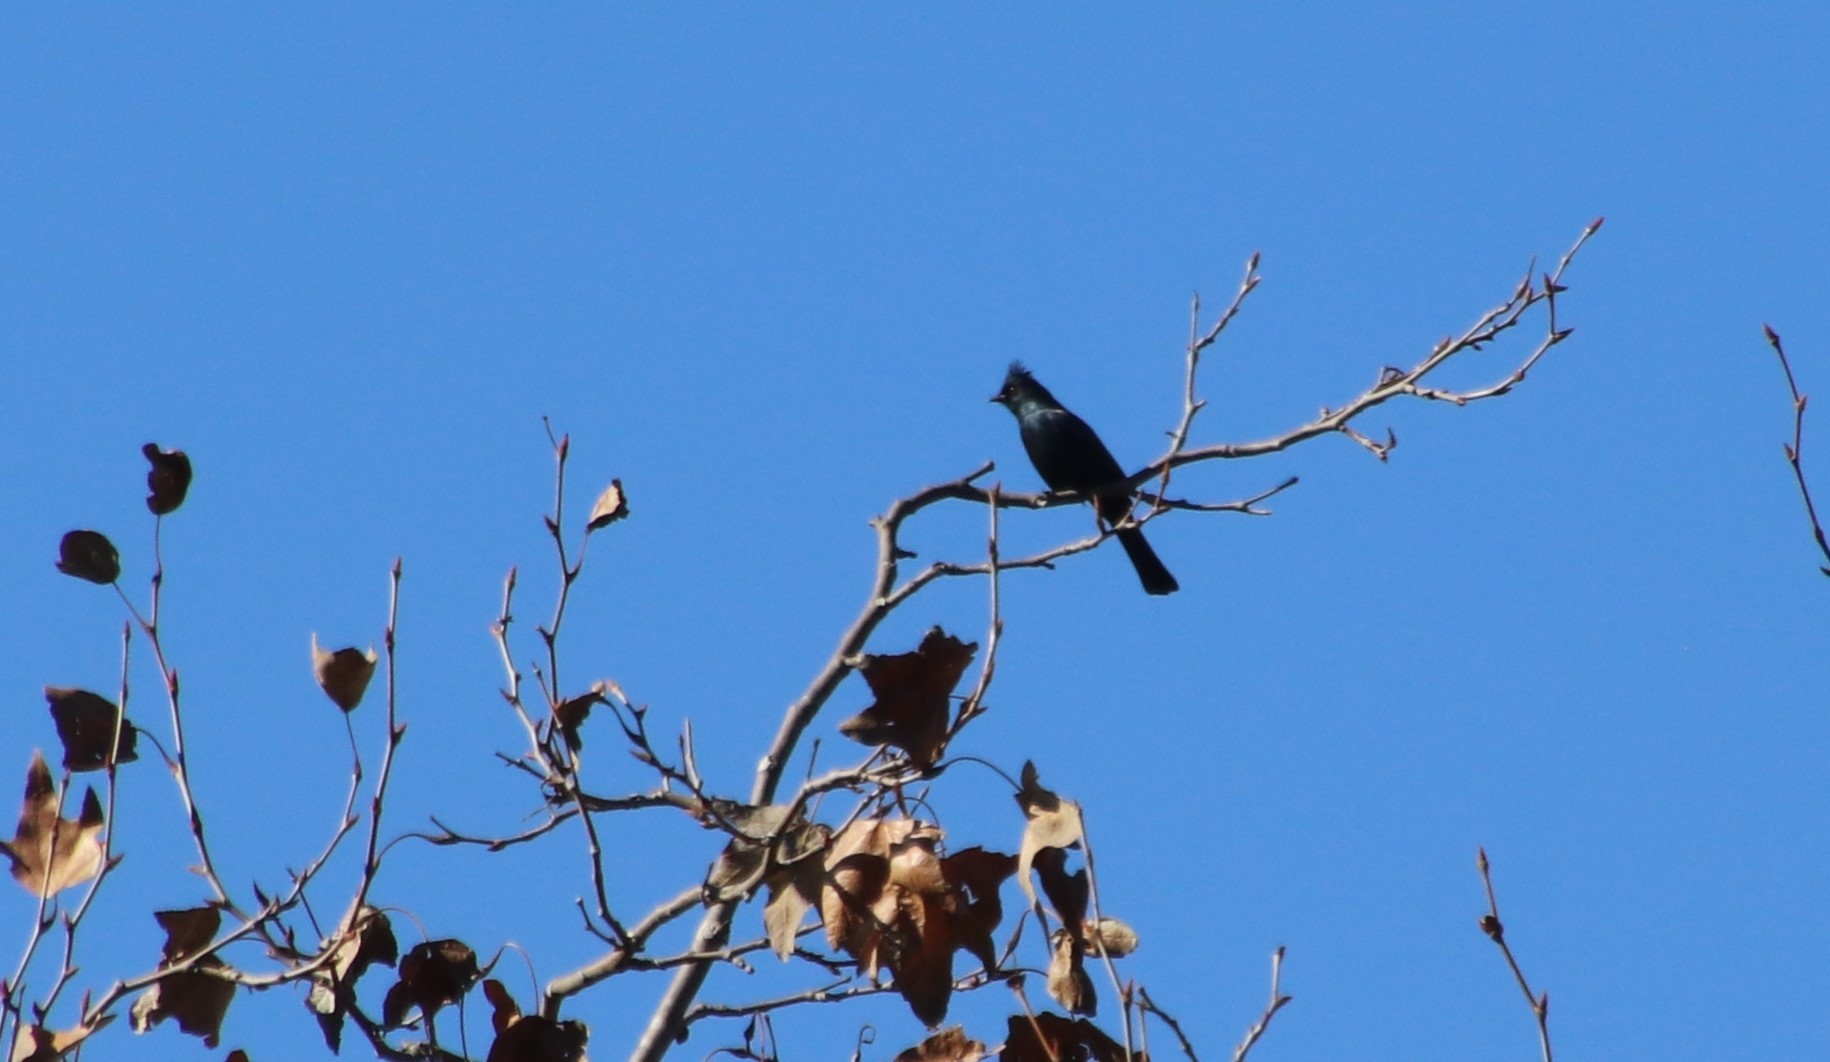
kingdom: Animalia
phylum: Chordata
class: Aves
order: Passeriformes
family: Ptilogonatidae
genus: Phainopepla
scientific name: Phainopepla nitens
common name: Phainopepla
